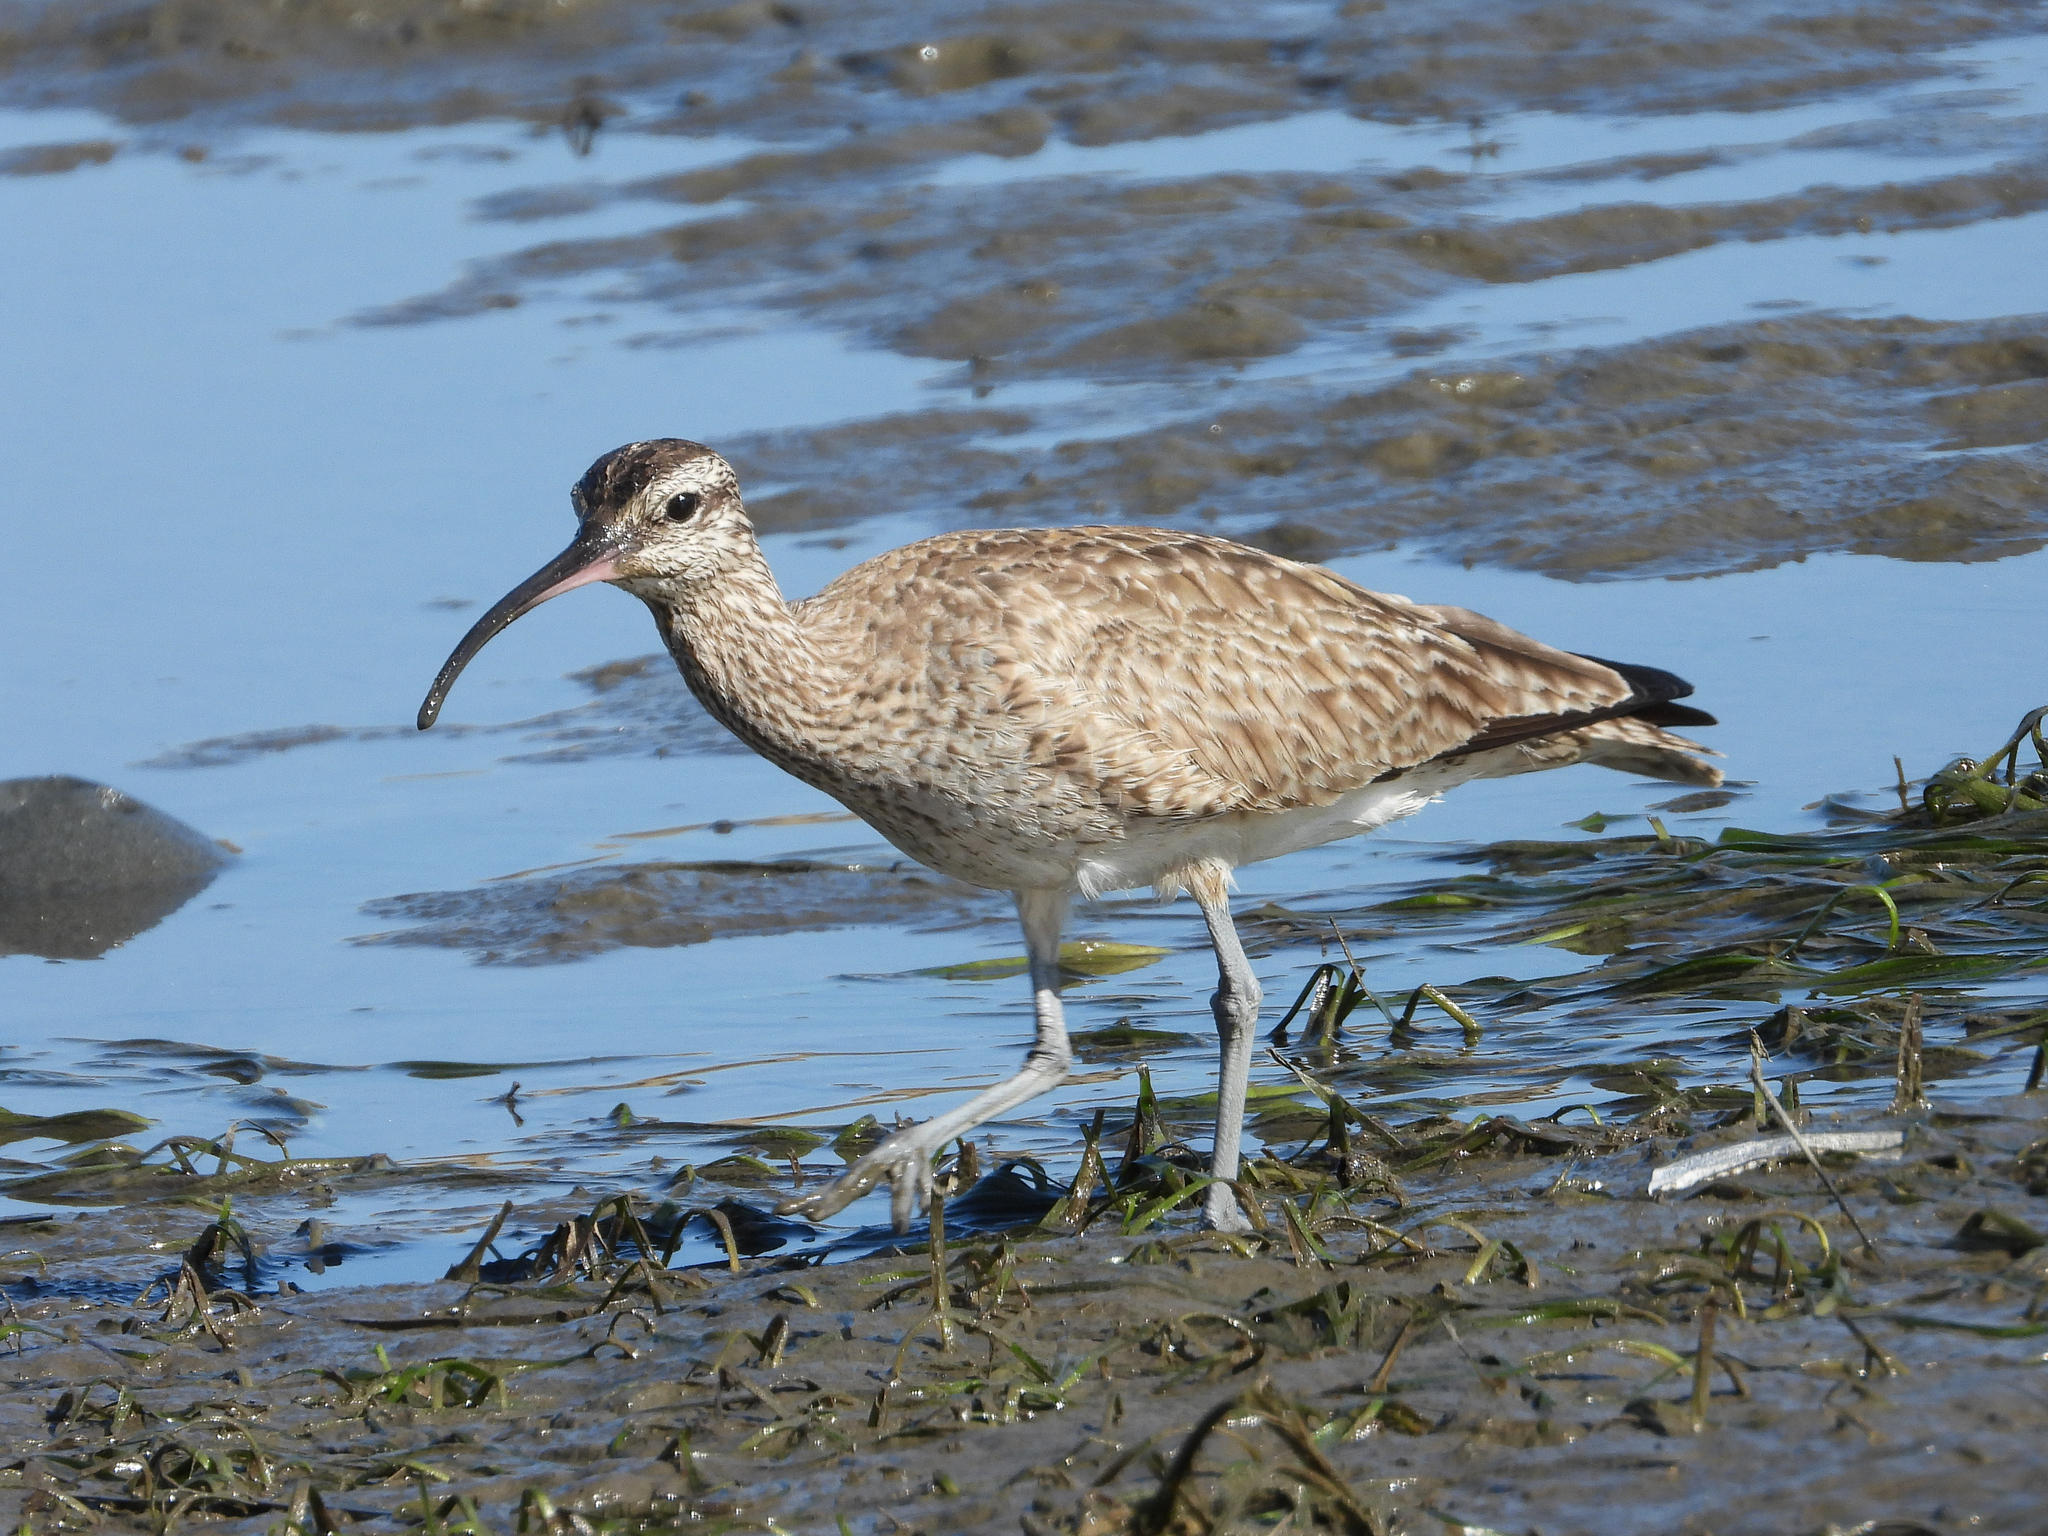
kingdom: Animalia
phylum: Chordata
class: Aves
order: Charadriiformes
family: Scolopacidae
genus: Numenius
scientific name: Numenius phaeopus
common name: Whimbrel
